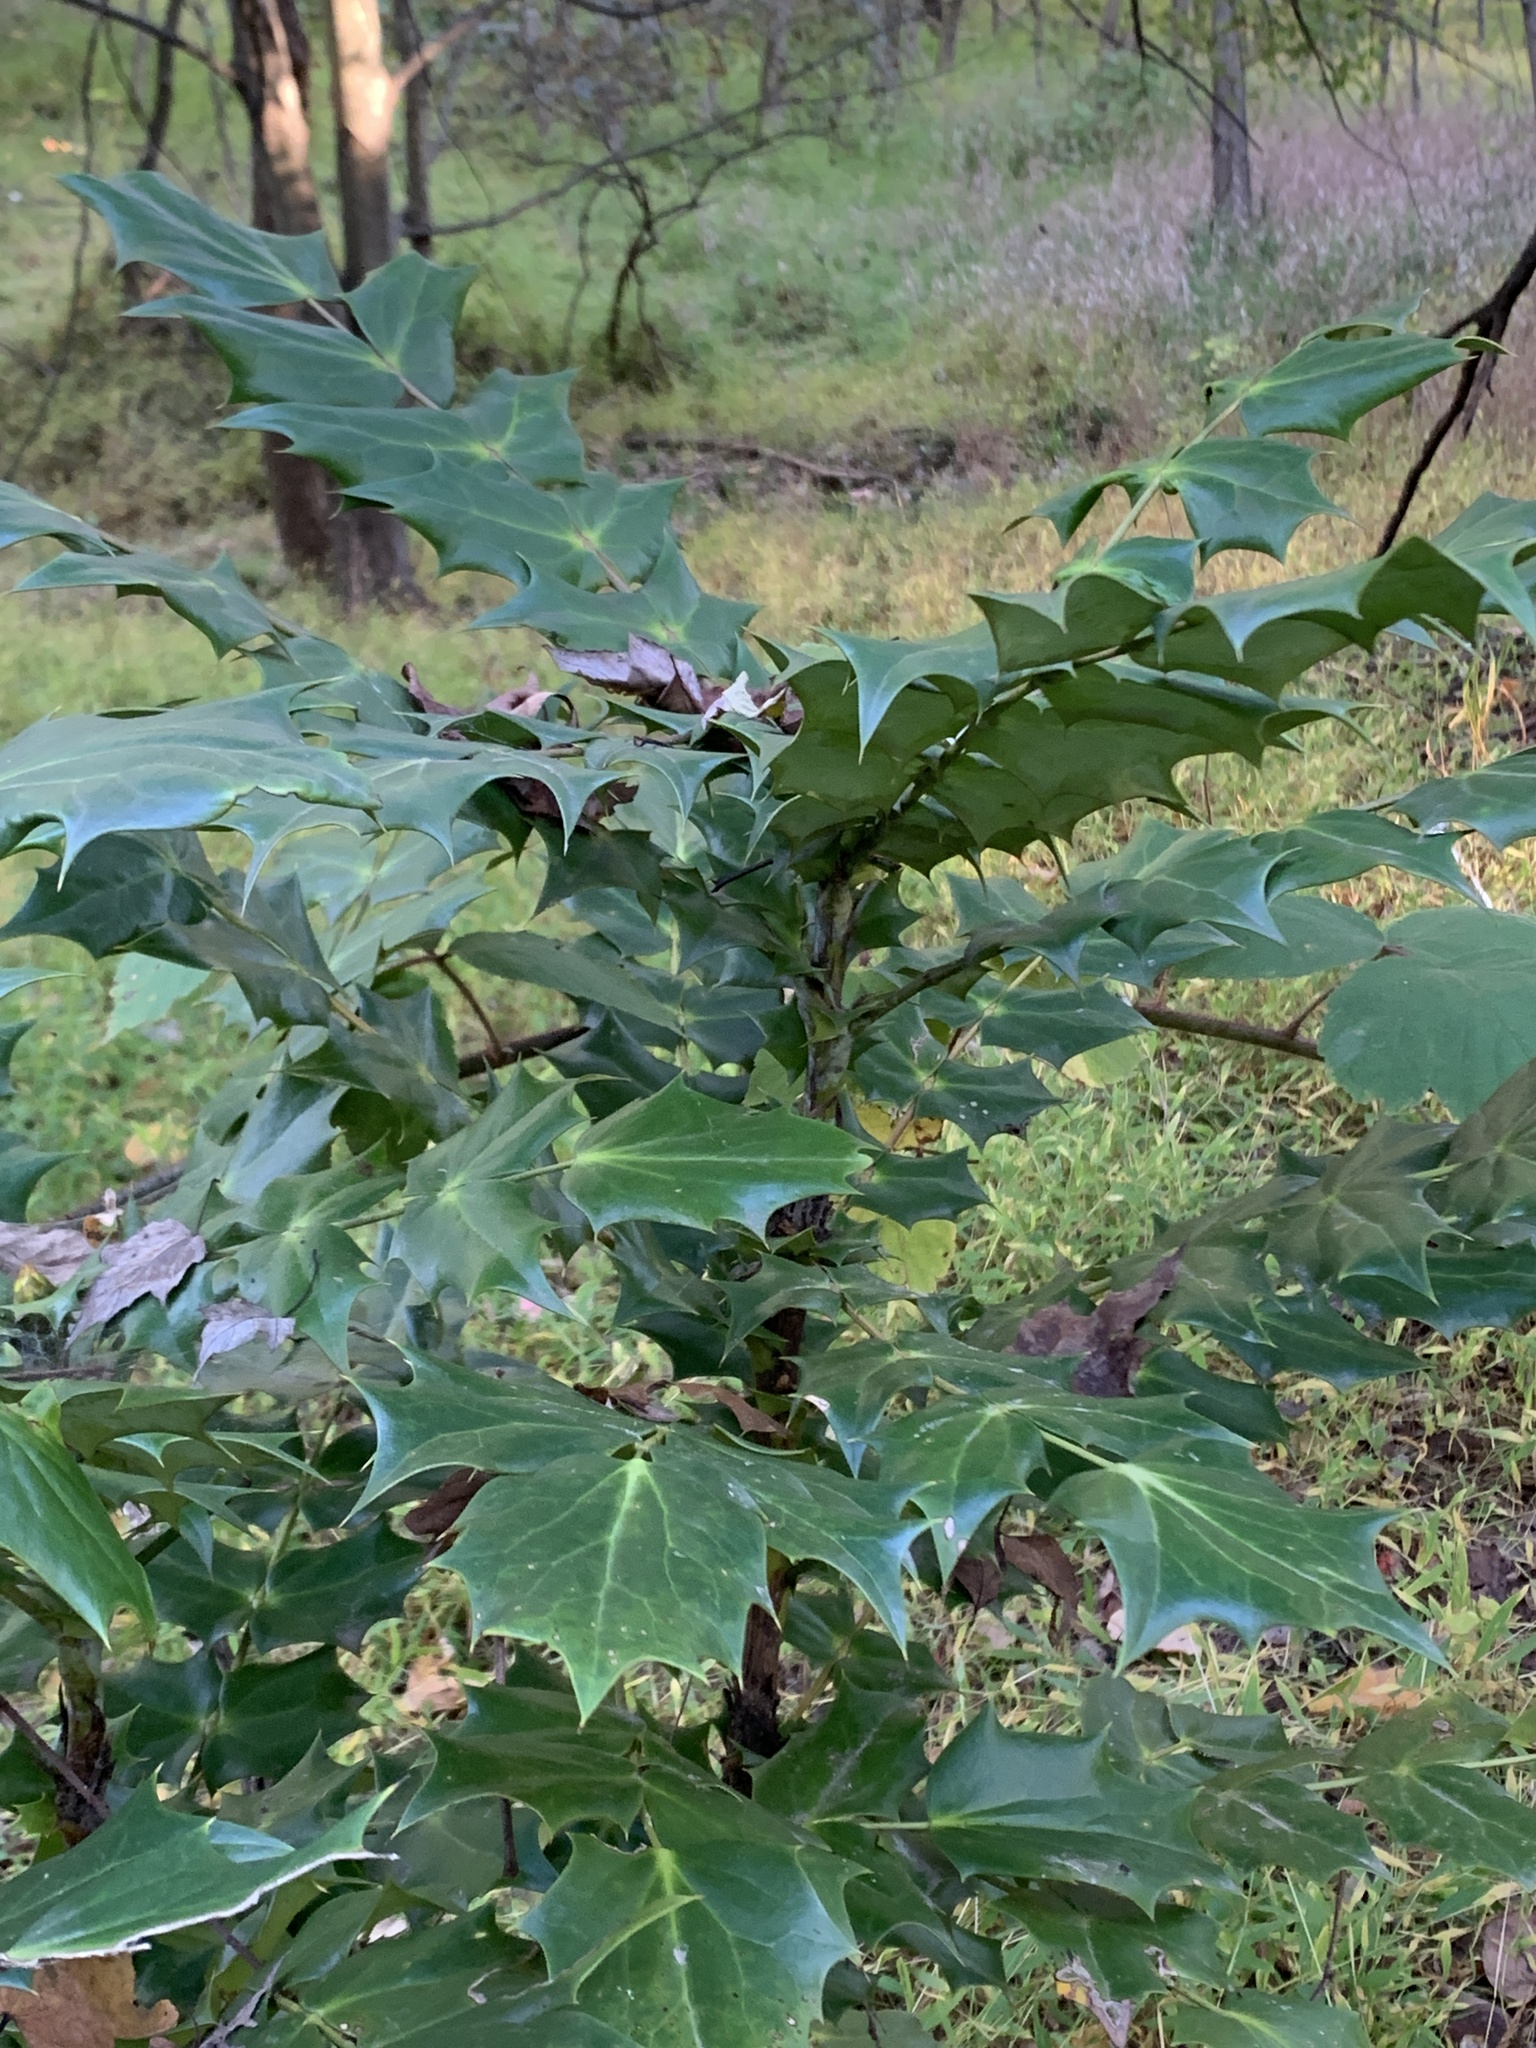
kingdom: Plantae
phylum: Tracheophyta
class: Magnoliopsida
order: Ranunculales
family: Berberidaceae
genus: Mahonia
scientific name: Mahonia bealei
